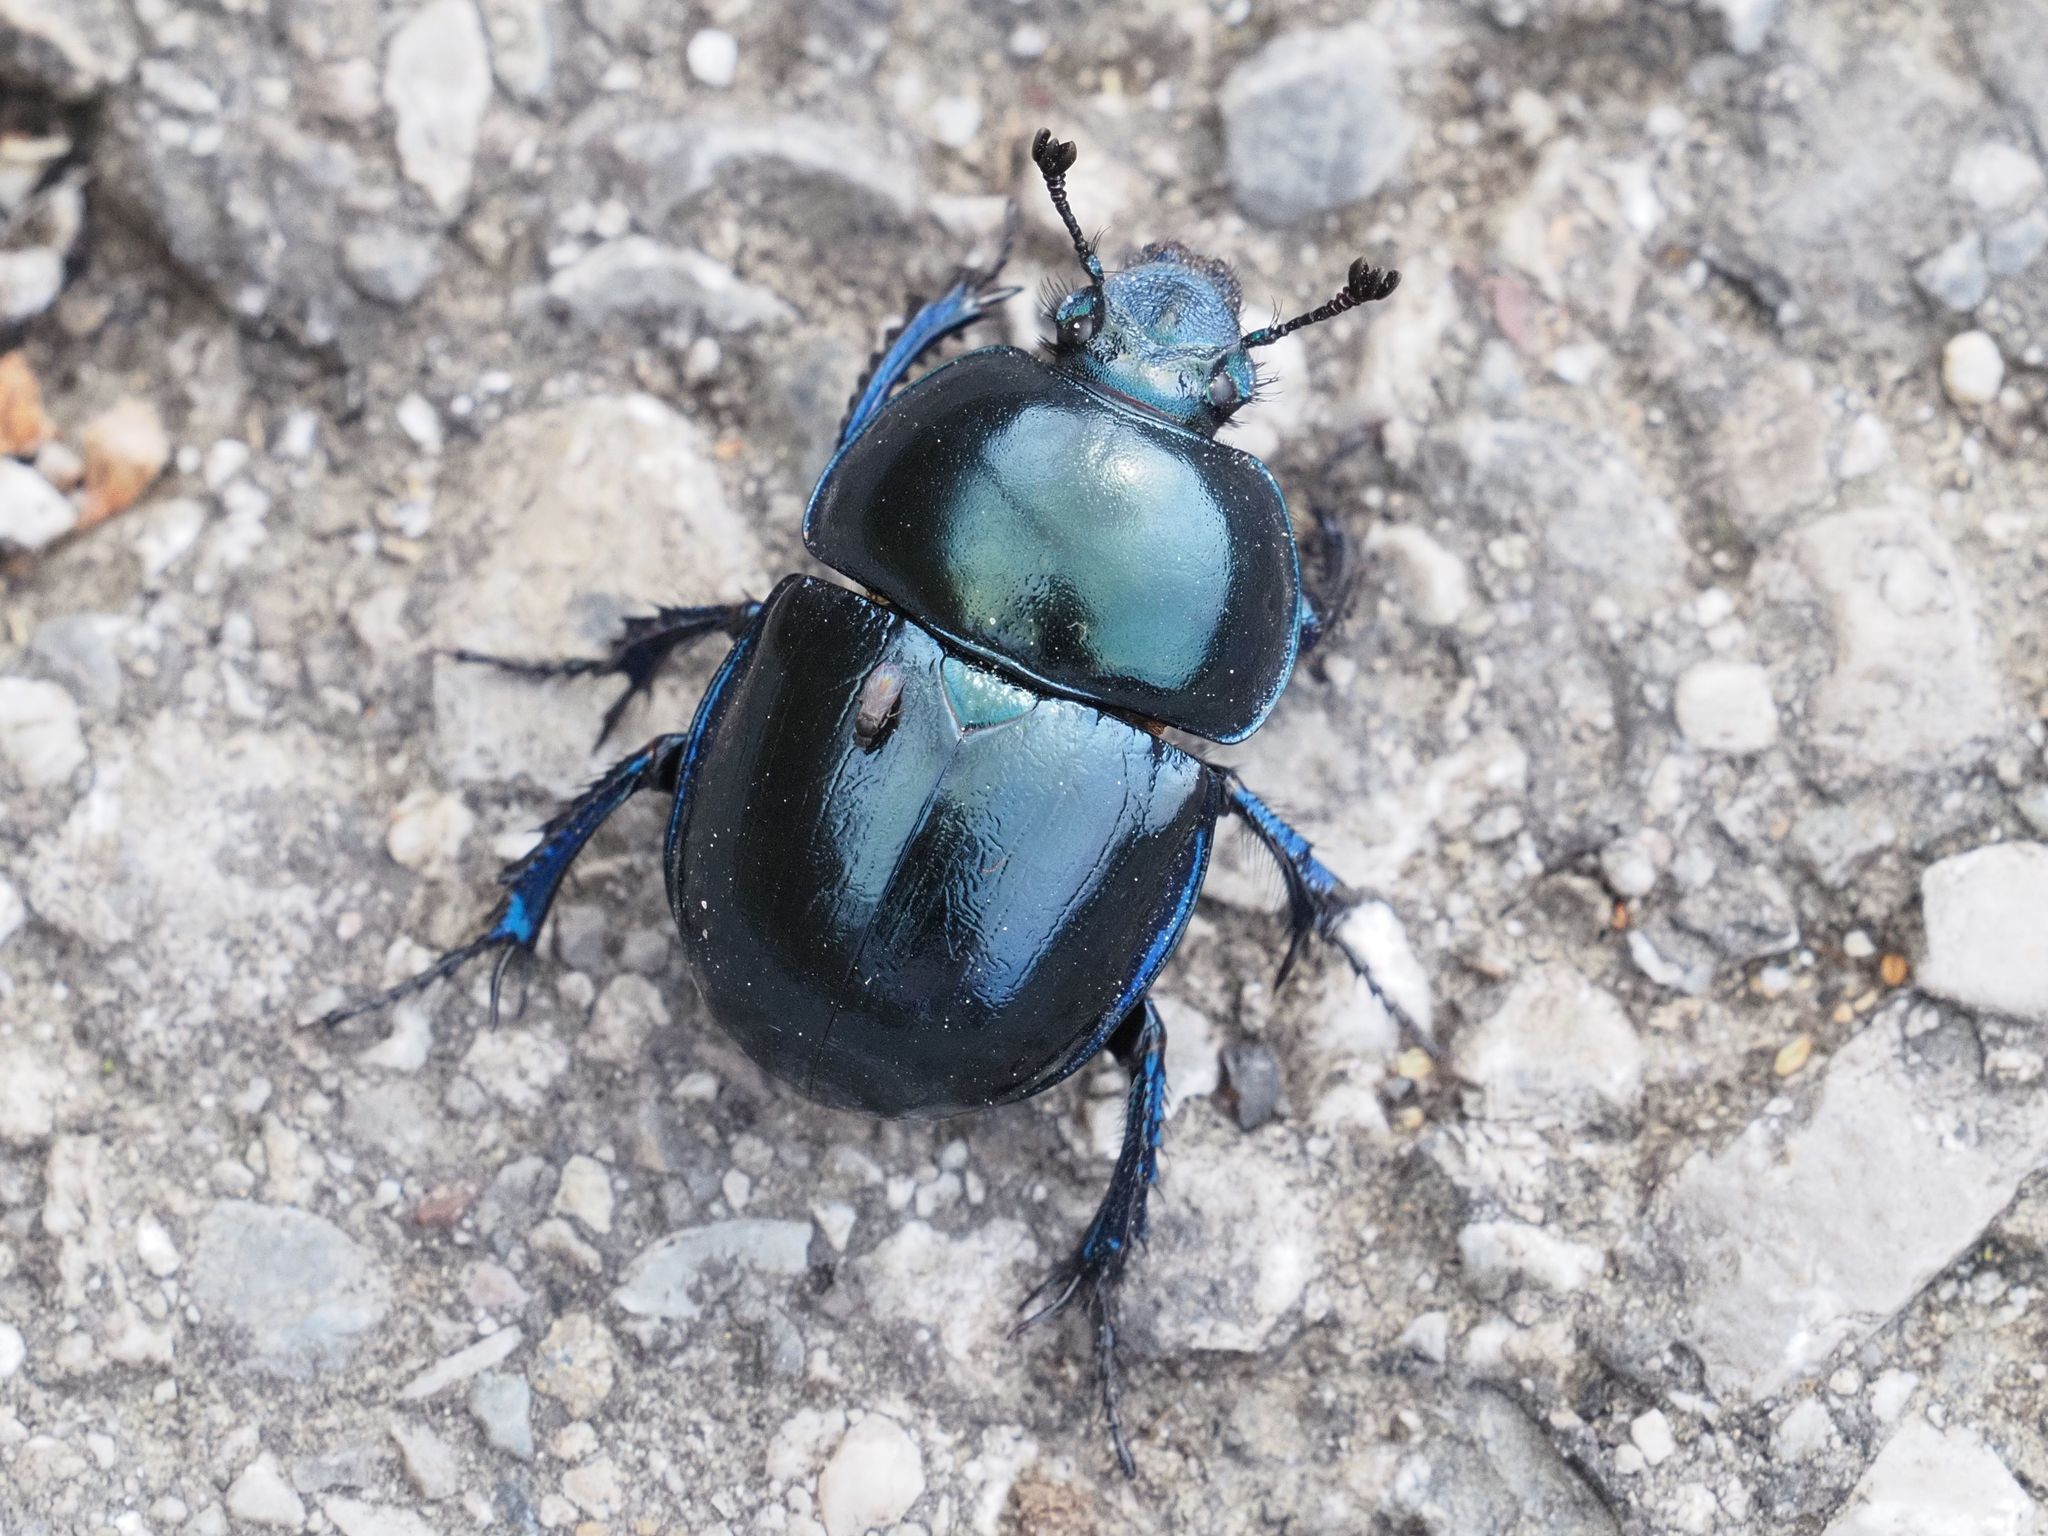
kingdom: Animalia
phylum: Arthropoda
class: Insecta
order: Coleoptera
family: Geotrupidae
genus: Trypocopris
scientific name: Trypocopris vernalis
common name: Spring dumbledor
